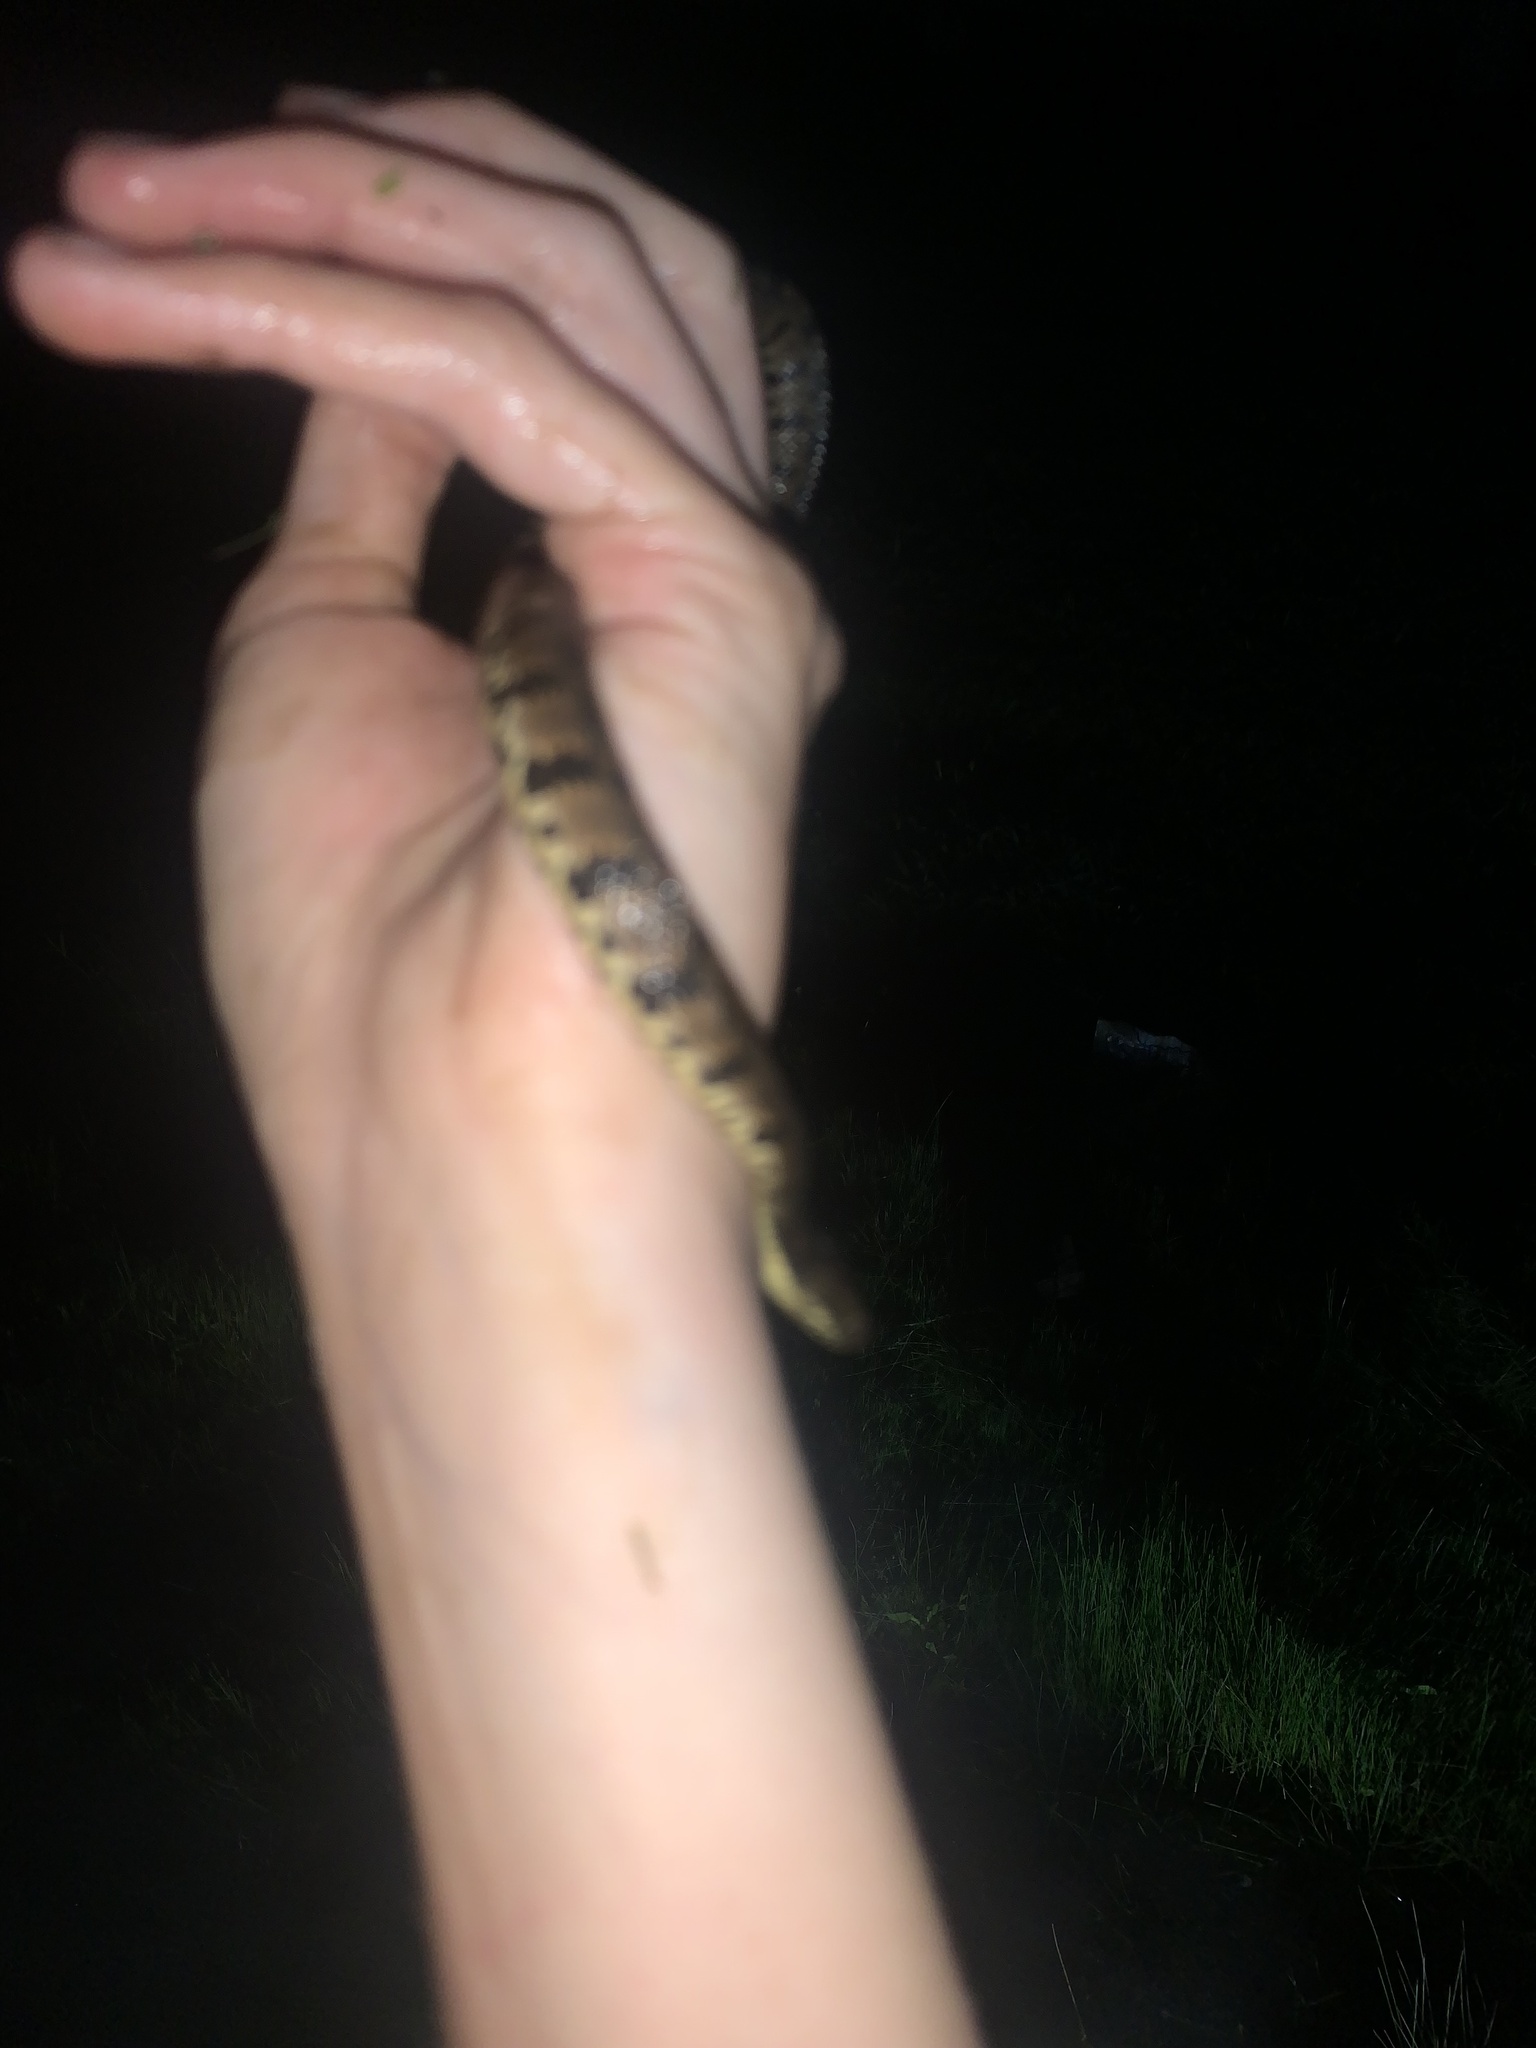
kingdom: Animalia
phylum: Chordata
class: Squamata
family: Colubridae
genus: Nerodia
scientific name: Nerodia rhombifer
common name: Diamondback water snake
